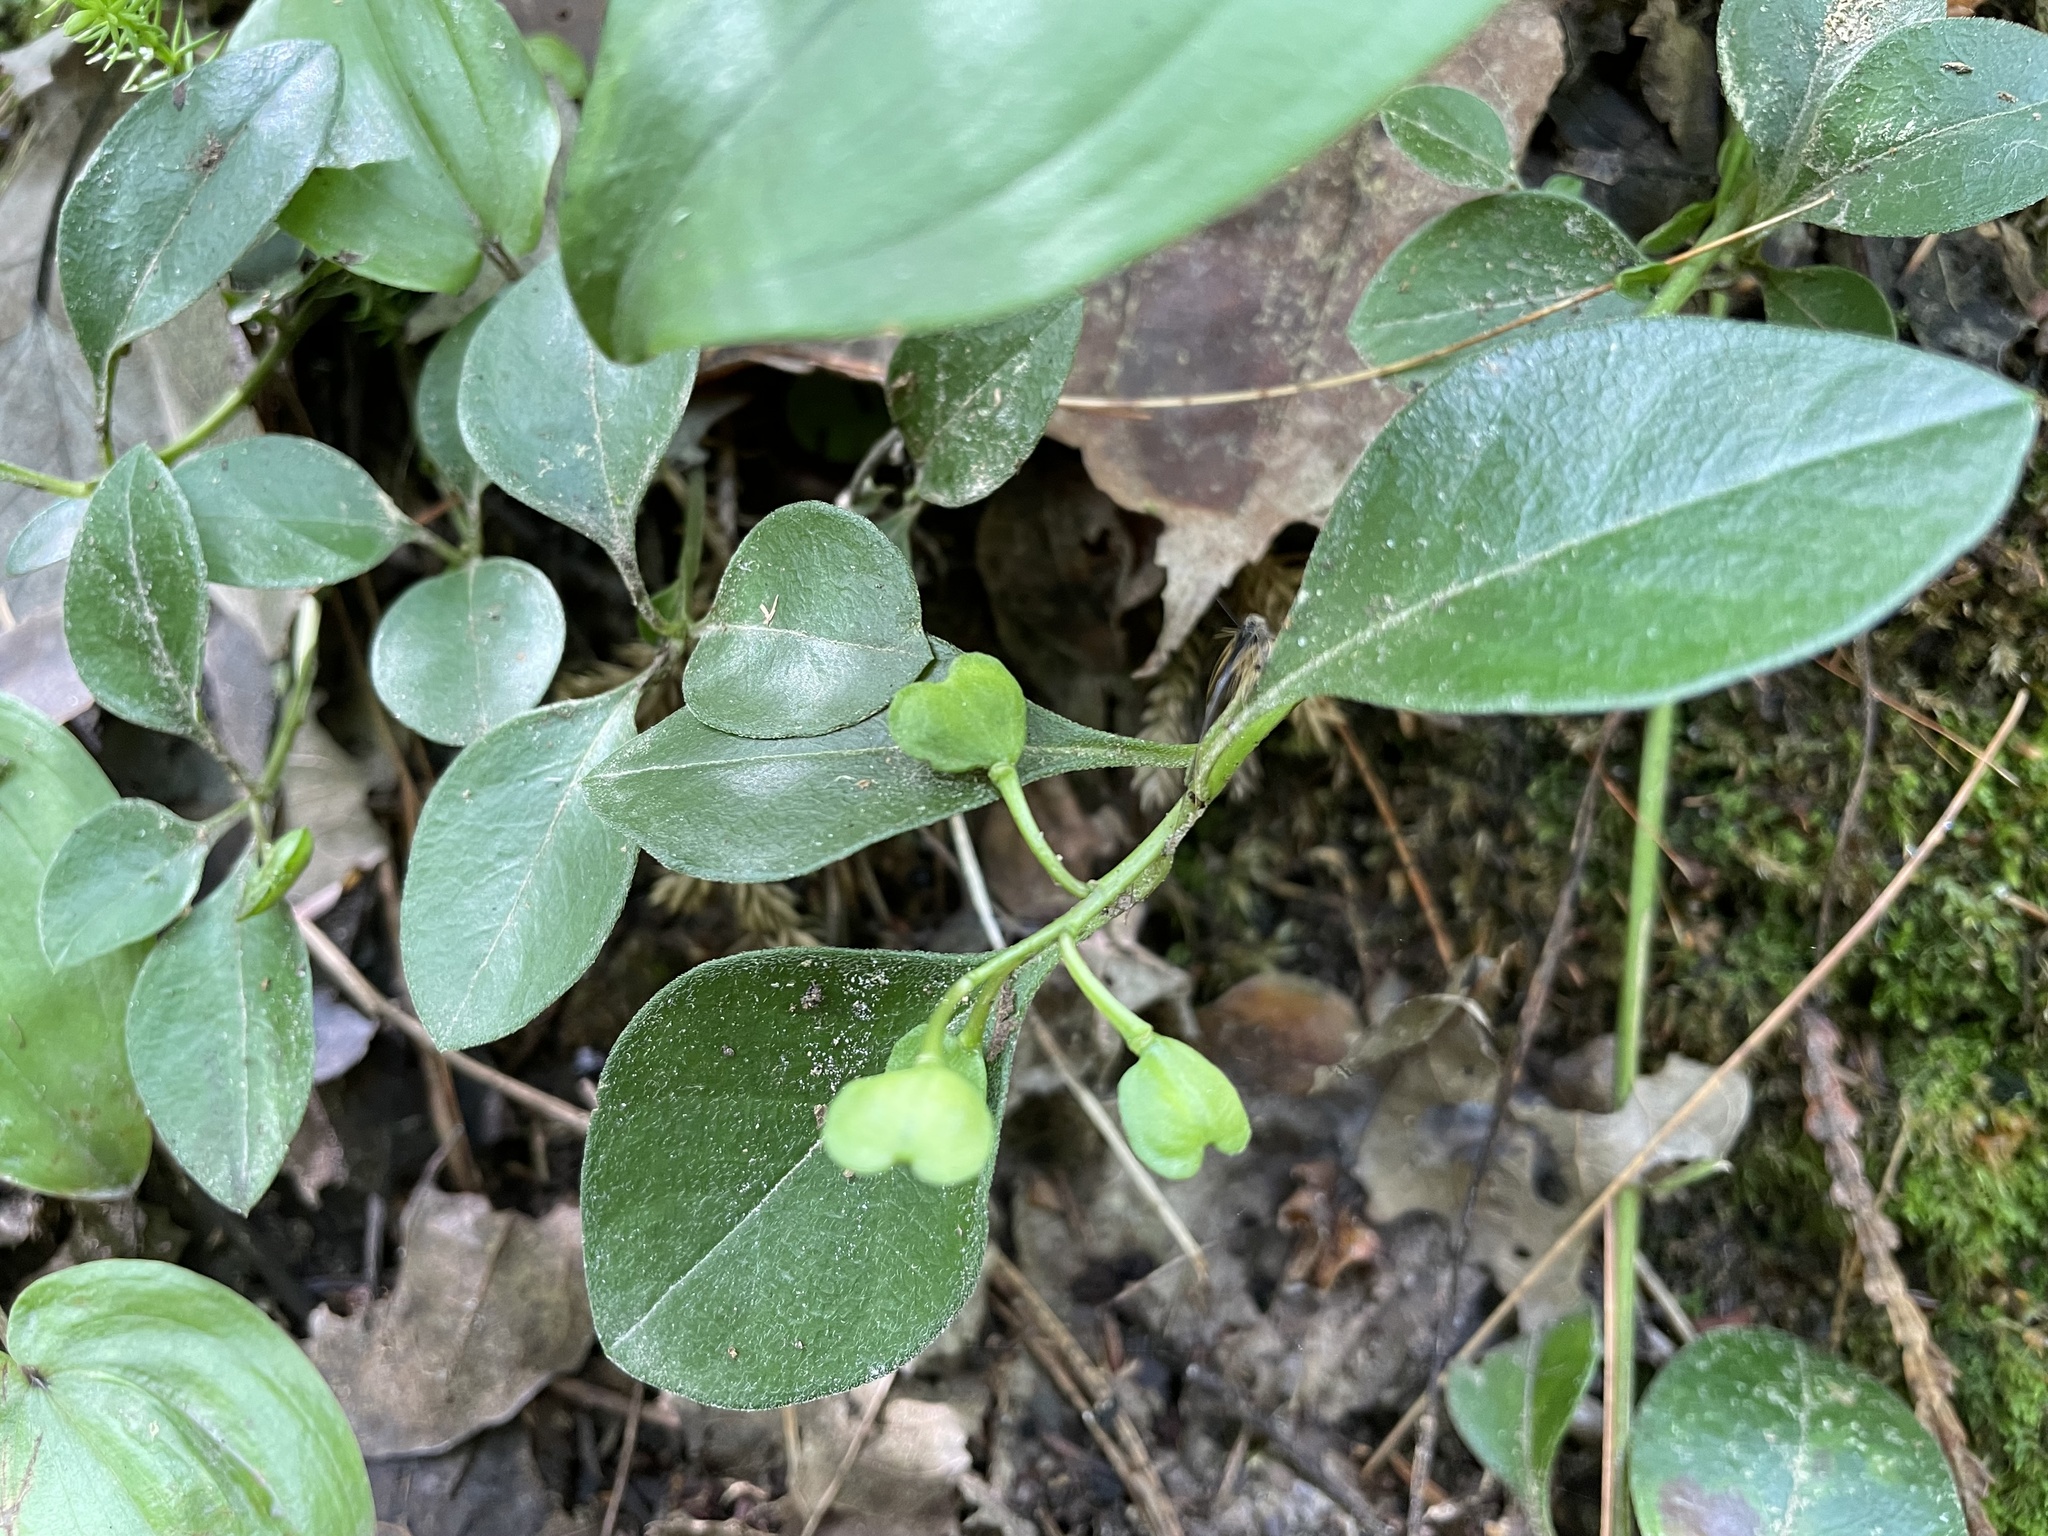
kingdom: Plantae
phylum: Tracheophyta
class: Magnoliopsida
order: Fabales
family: Polygalaceae
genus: Polygaloides
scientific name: Polygaloides paucifolia
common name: Bird-on-the-wing
